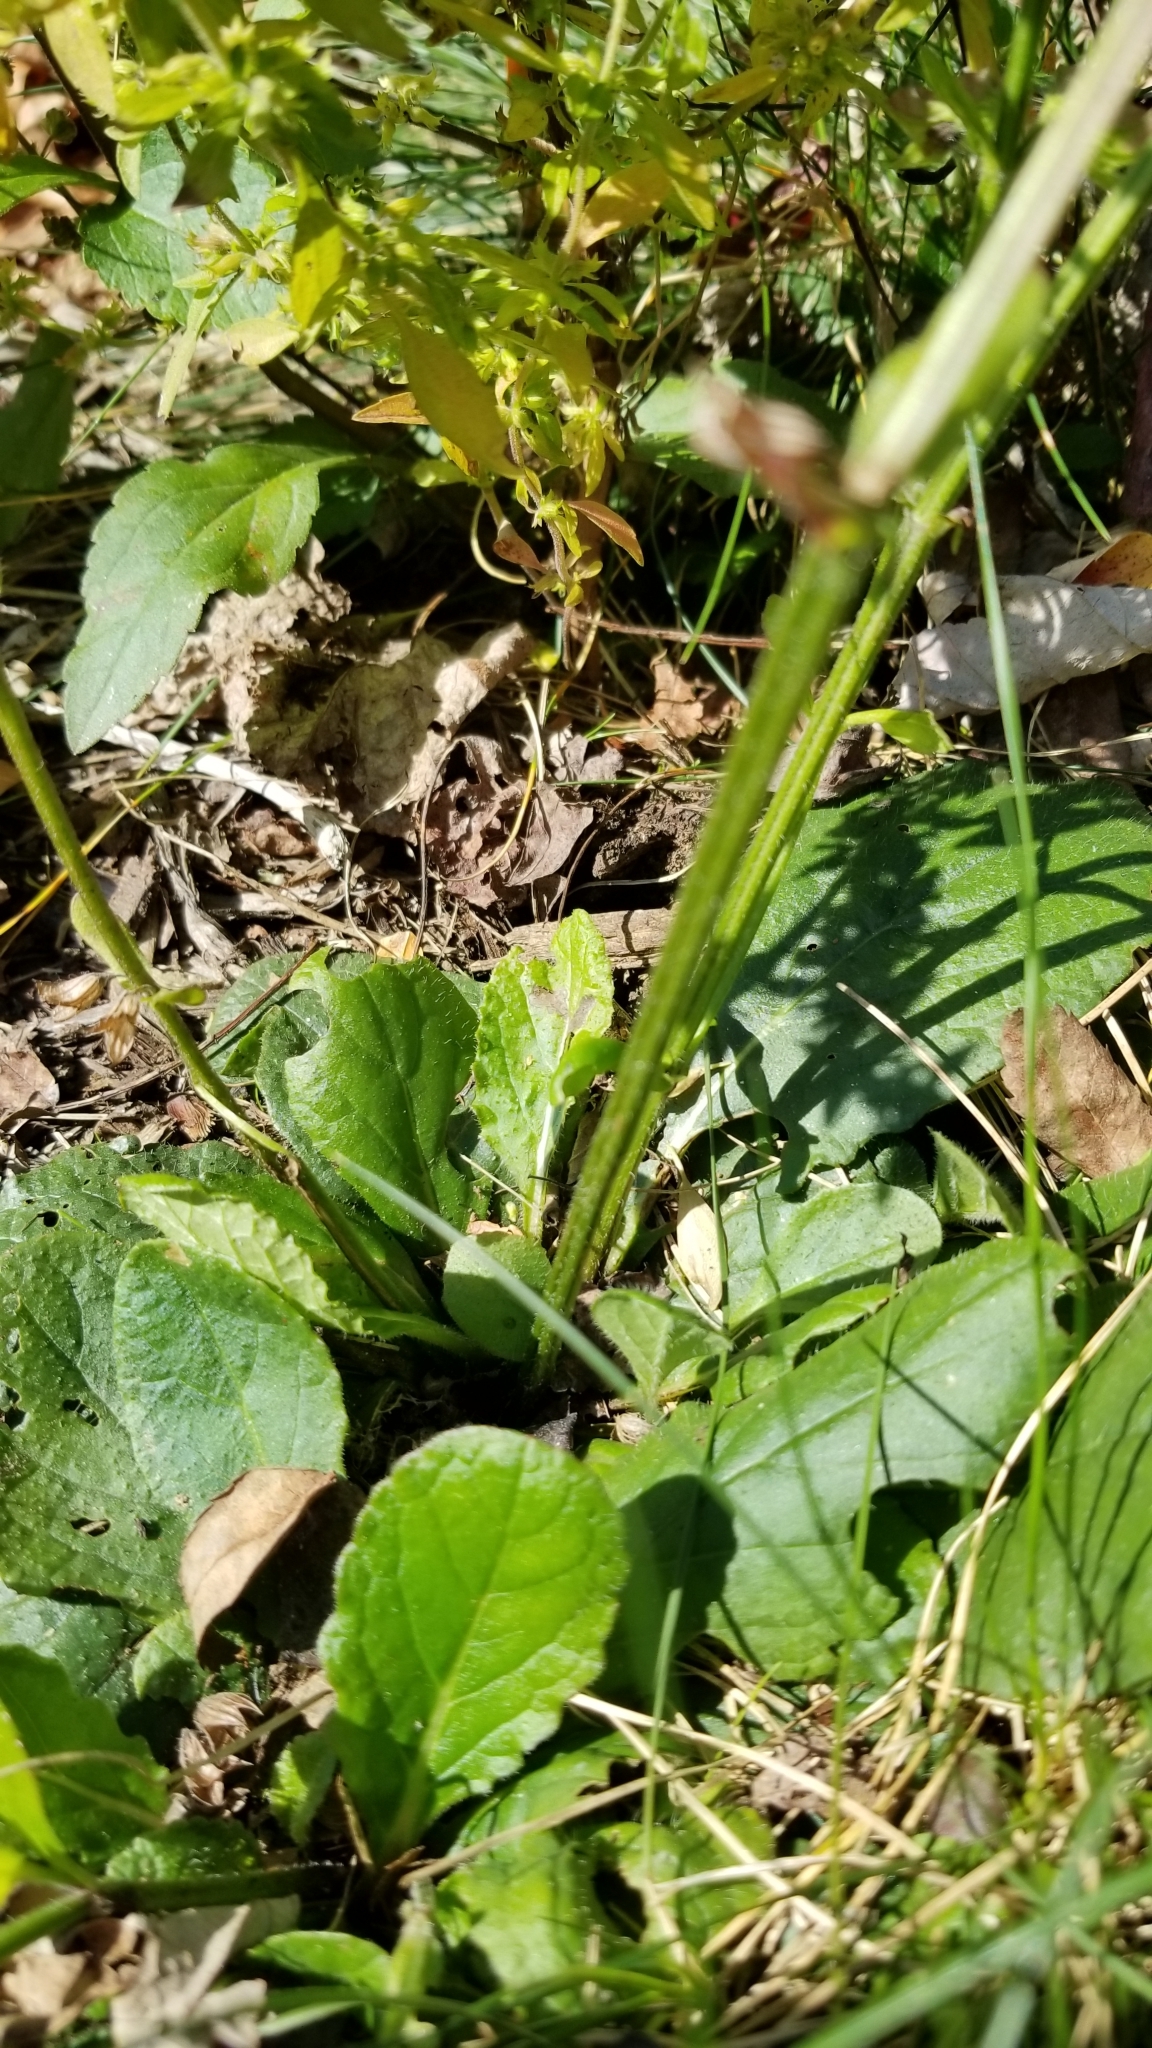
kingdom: Plantae
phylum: Tracheophyta
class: Magnoliopsida
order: Lamiales
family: Lamiaceae
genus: Salvia
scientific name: Salvia lyrata
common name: Cancerweed
